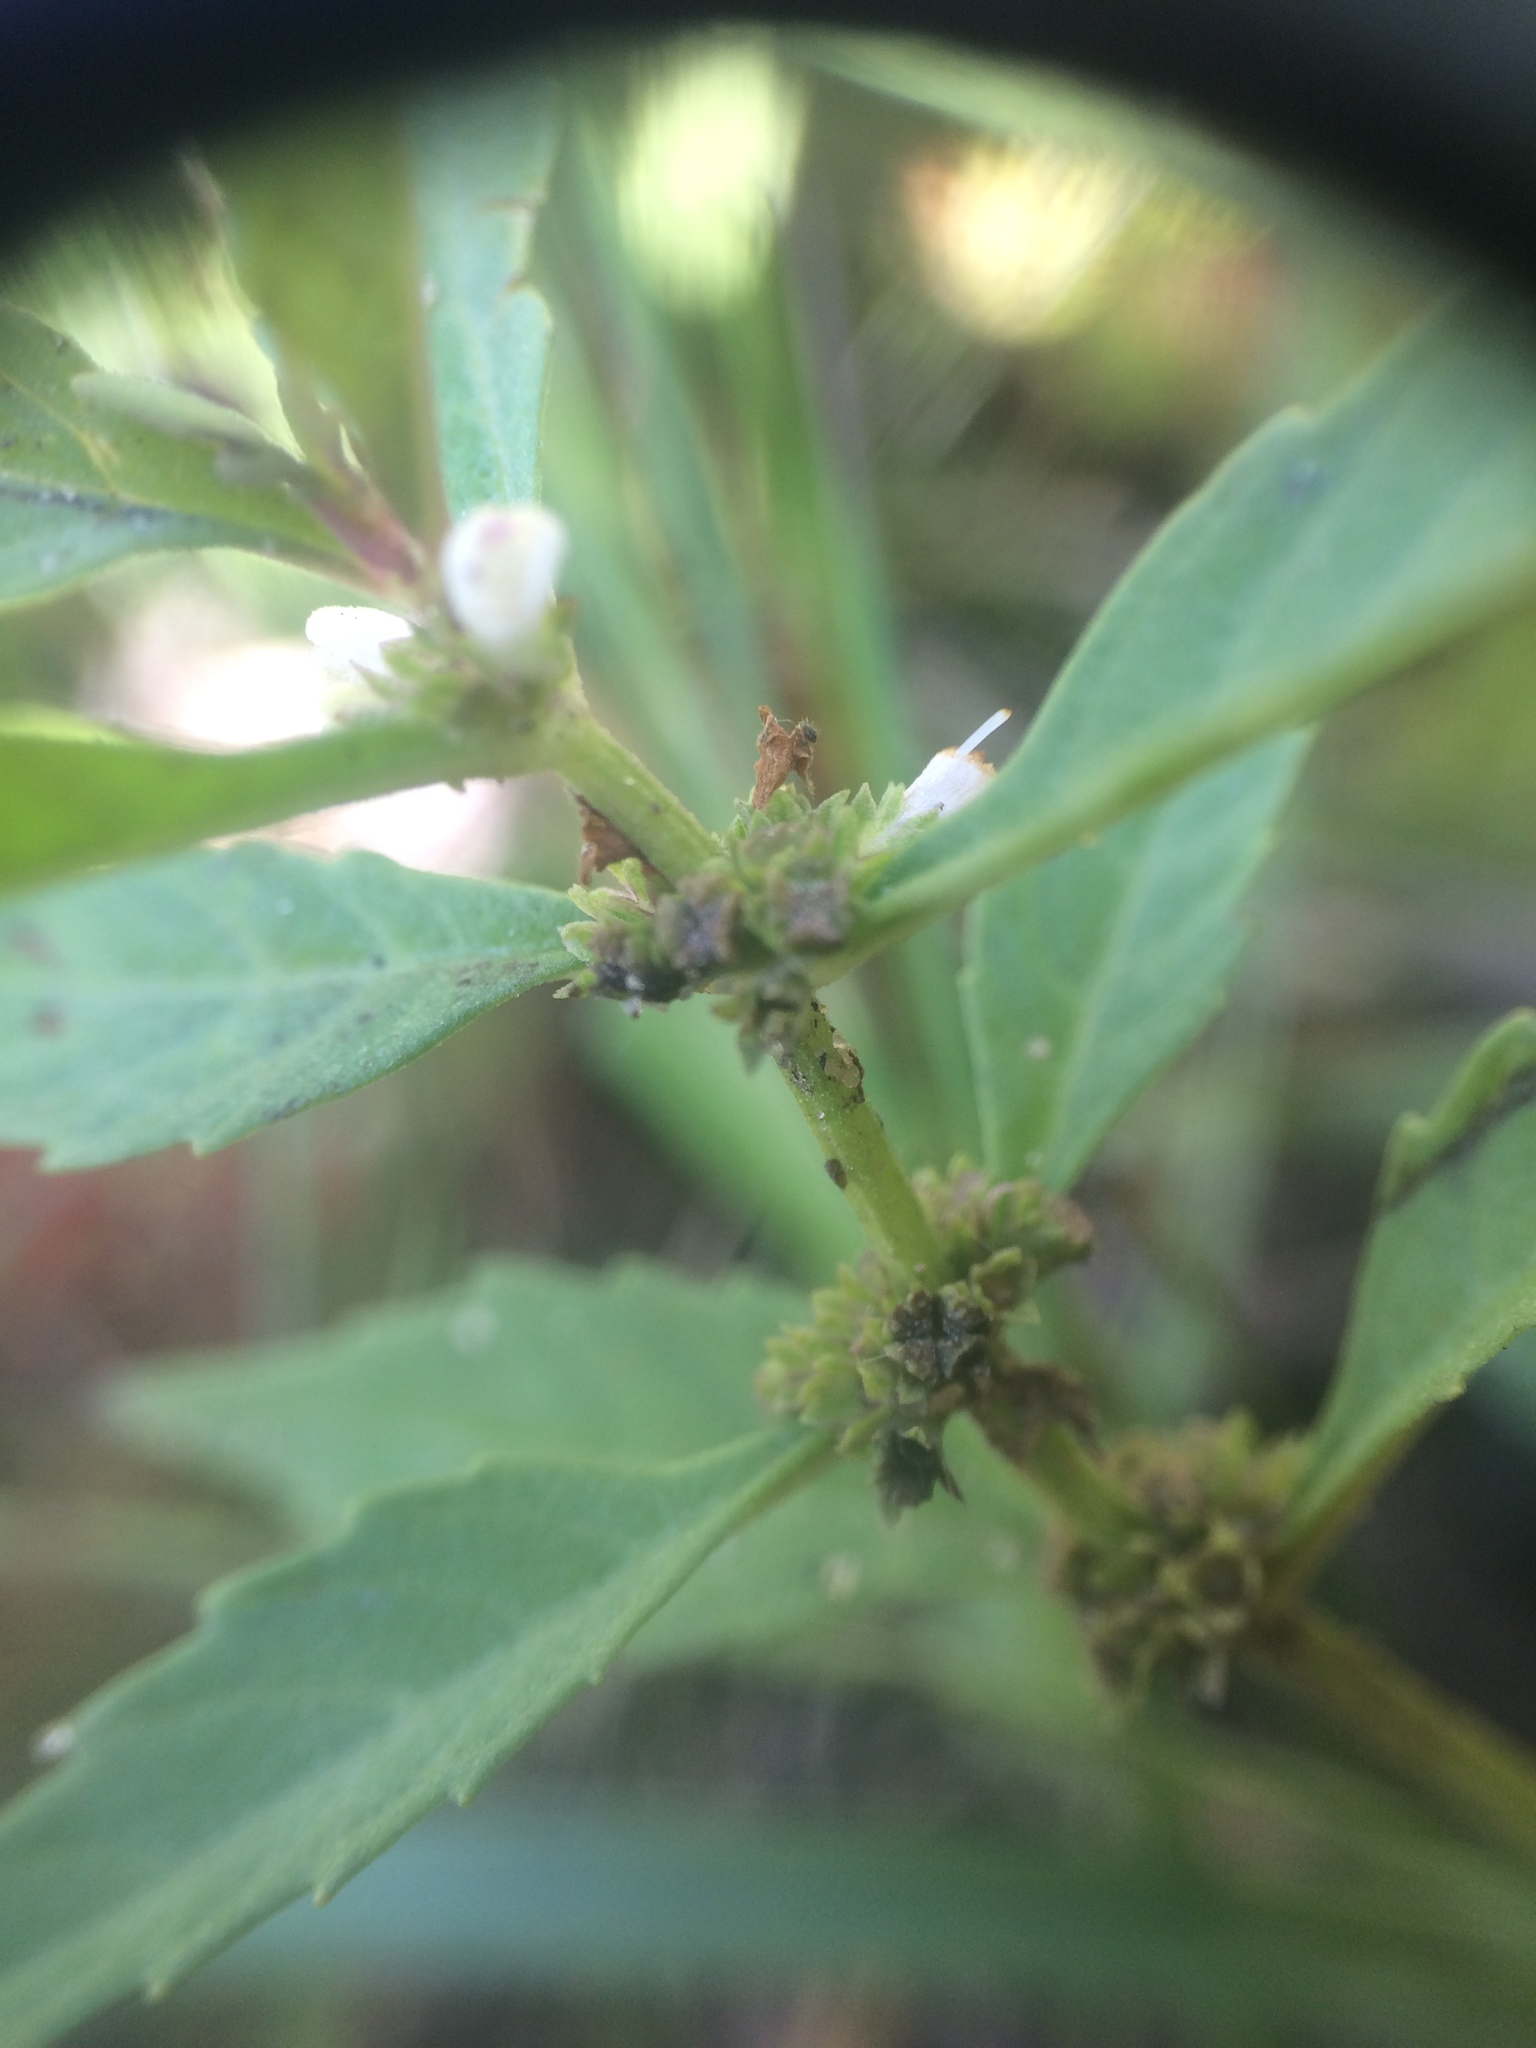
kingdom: Plantae
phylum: Tracheophyta
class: Magnoliopsida
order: Lamiales
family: Lamiaceae
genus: Lycopus
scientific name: Lycopus uniflorus
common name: Northern bugleweed
